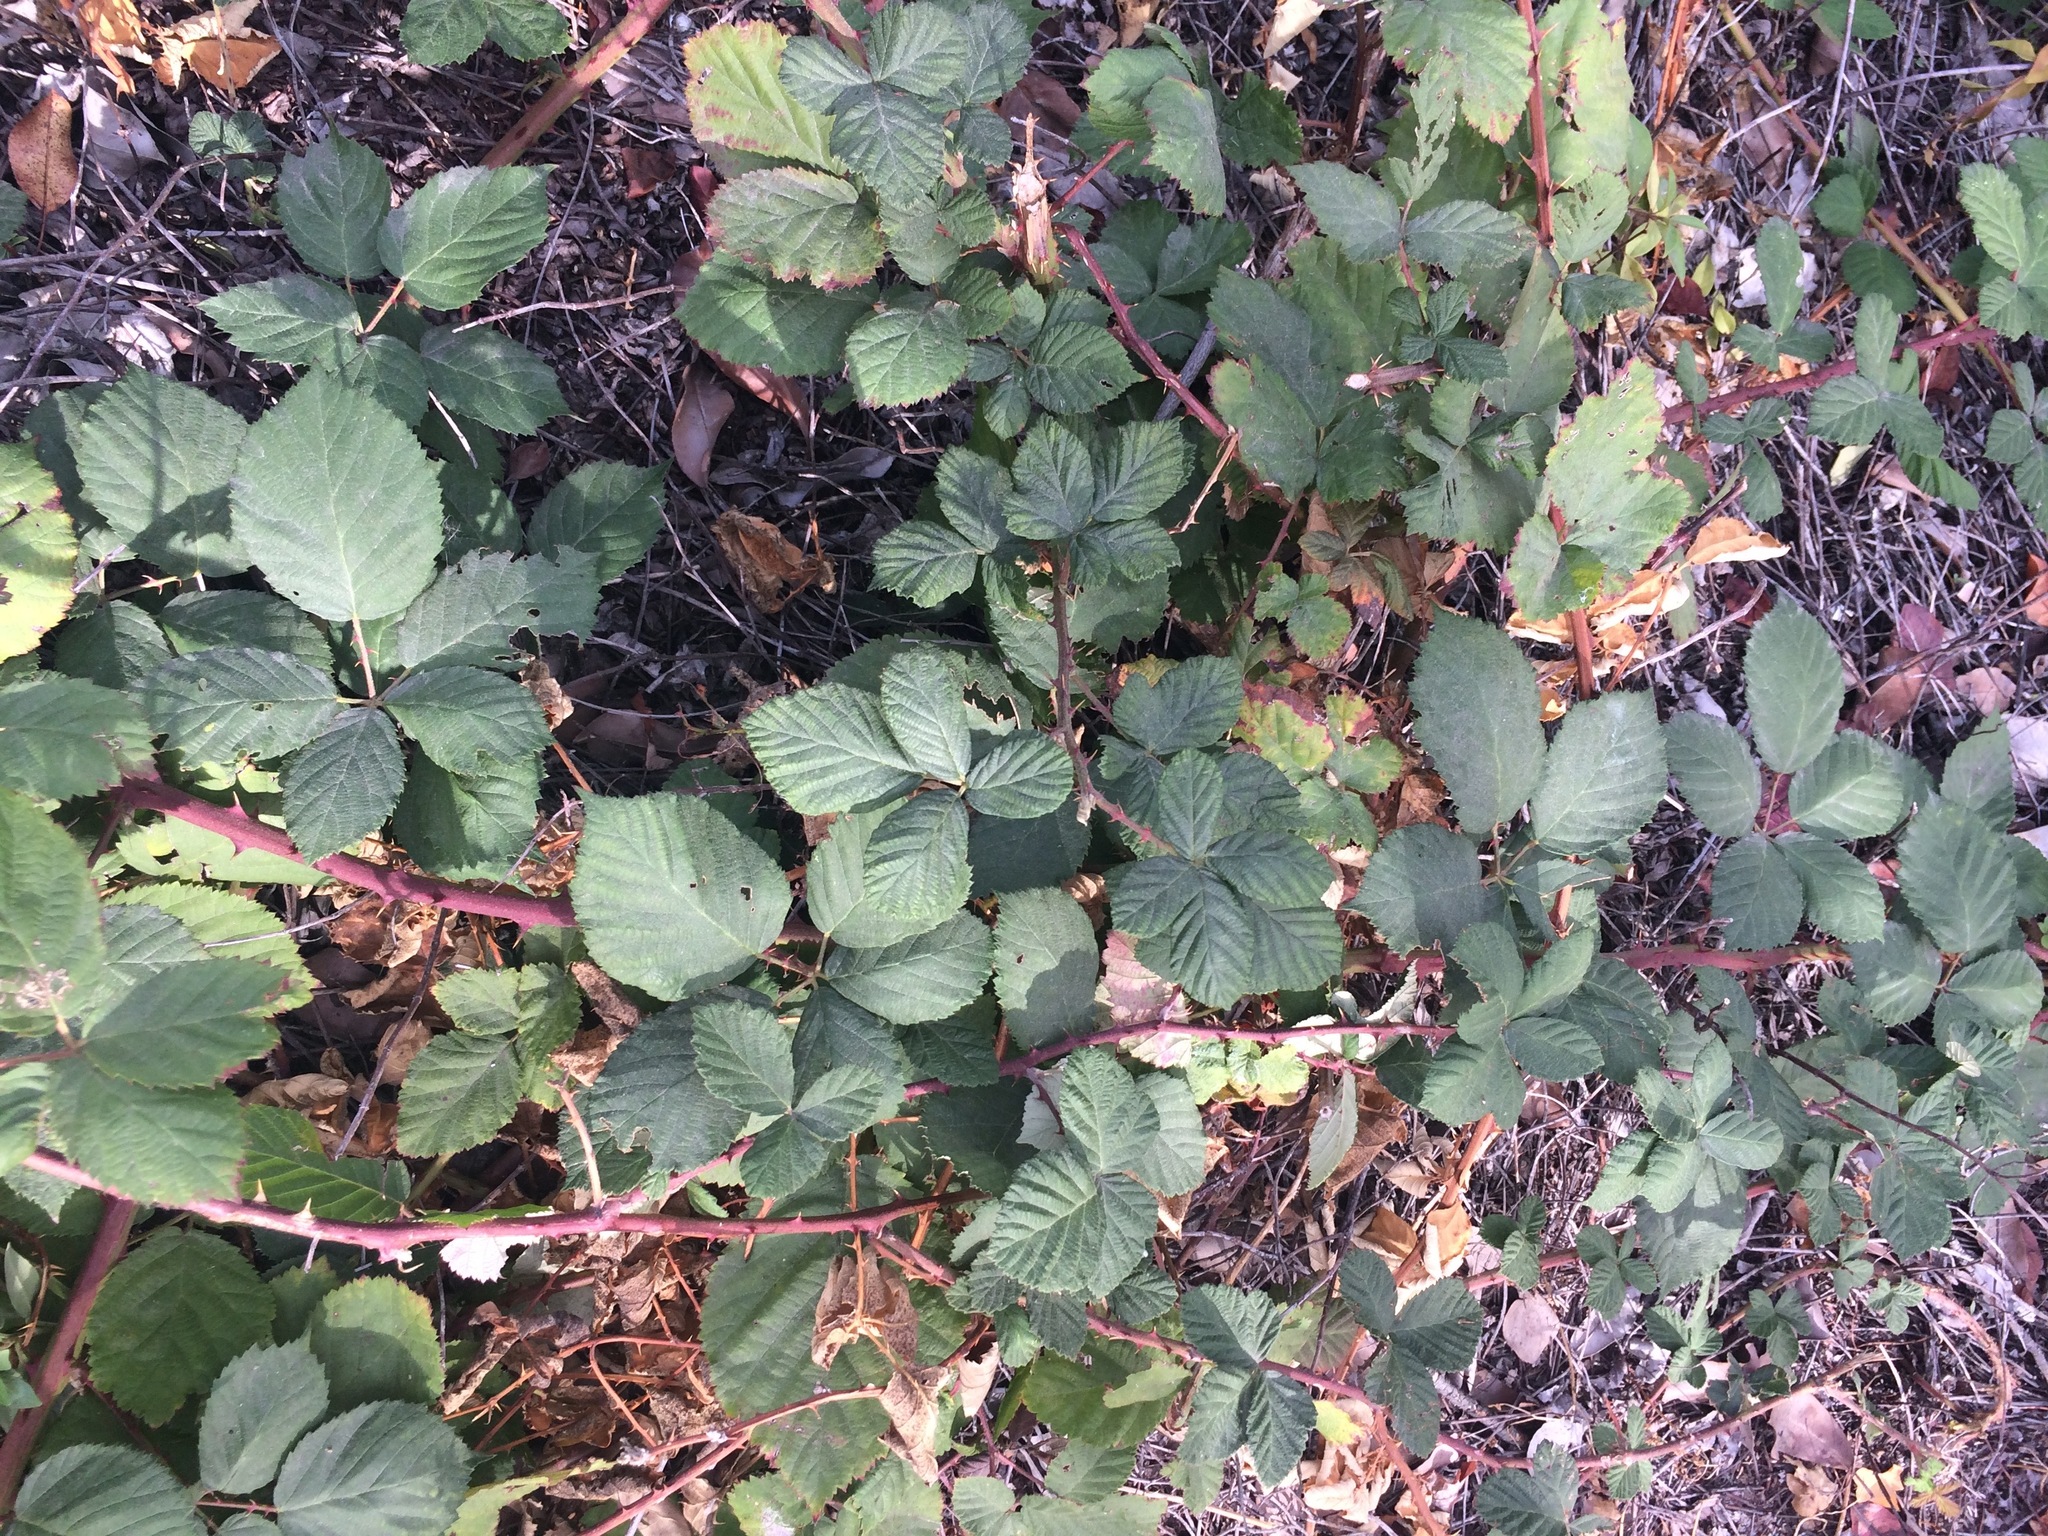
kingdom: Plantae
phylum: Tracheophyta
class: Magnoliopsida
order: Rosales
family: Rosaceae
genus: Rubus
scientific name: Rubus armeniacus
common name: Himalayan blackberry
